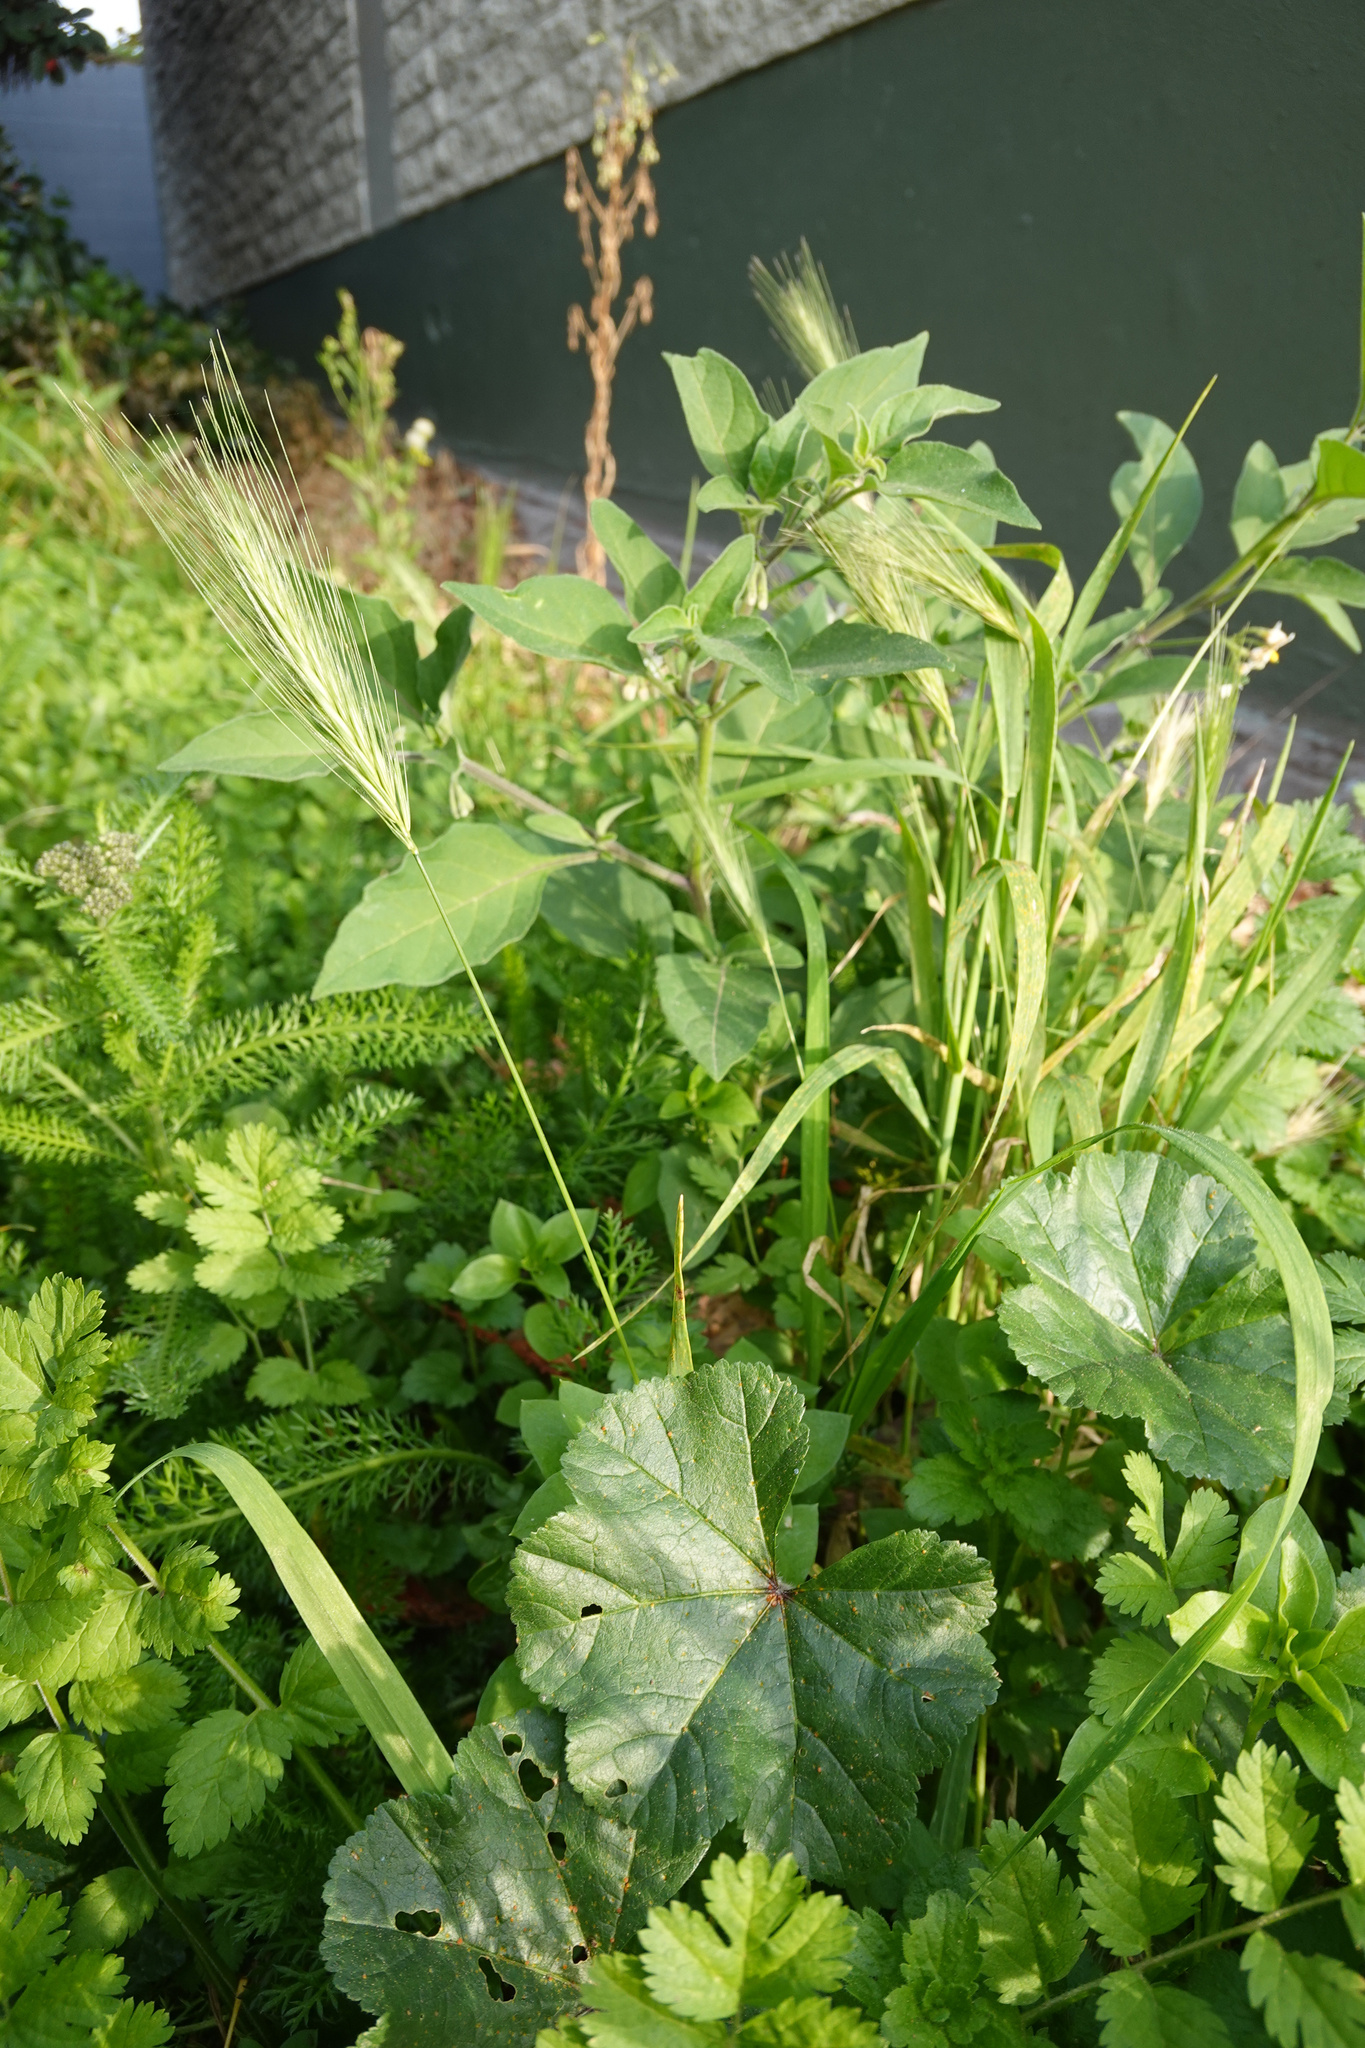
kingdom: Plantae
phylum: Tracheophyta
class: Liliopsida
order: Poales
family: Poaceae
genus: Hordeum
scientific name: Hordeum murinum
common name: Wall barley
